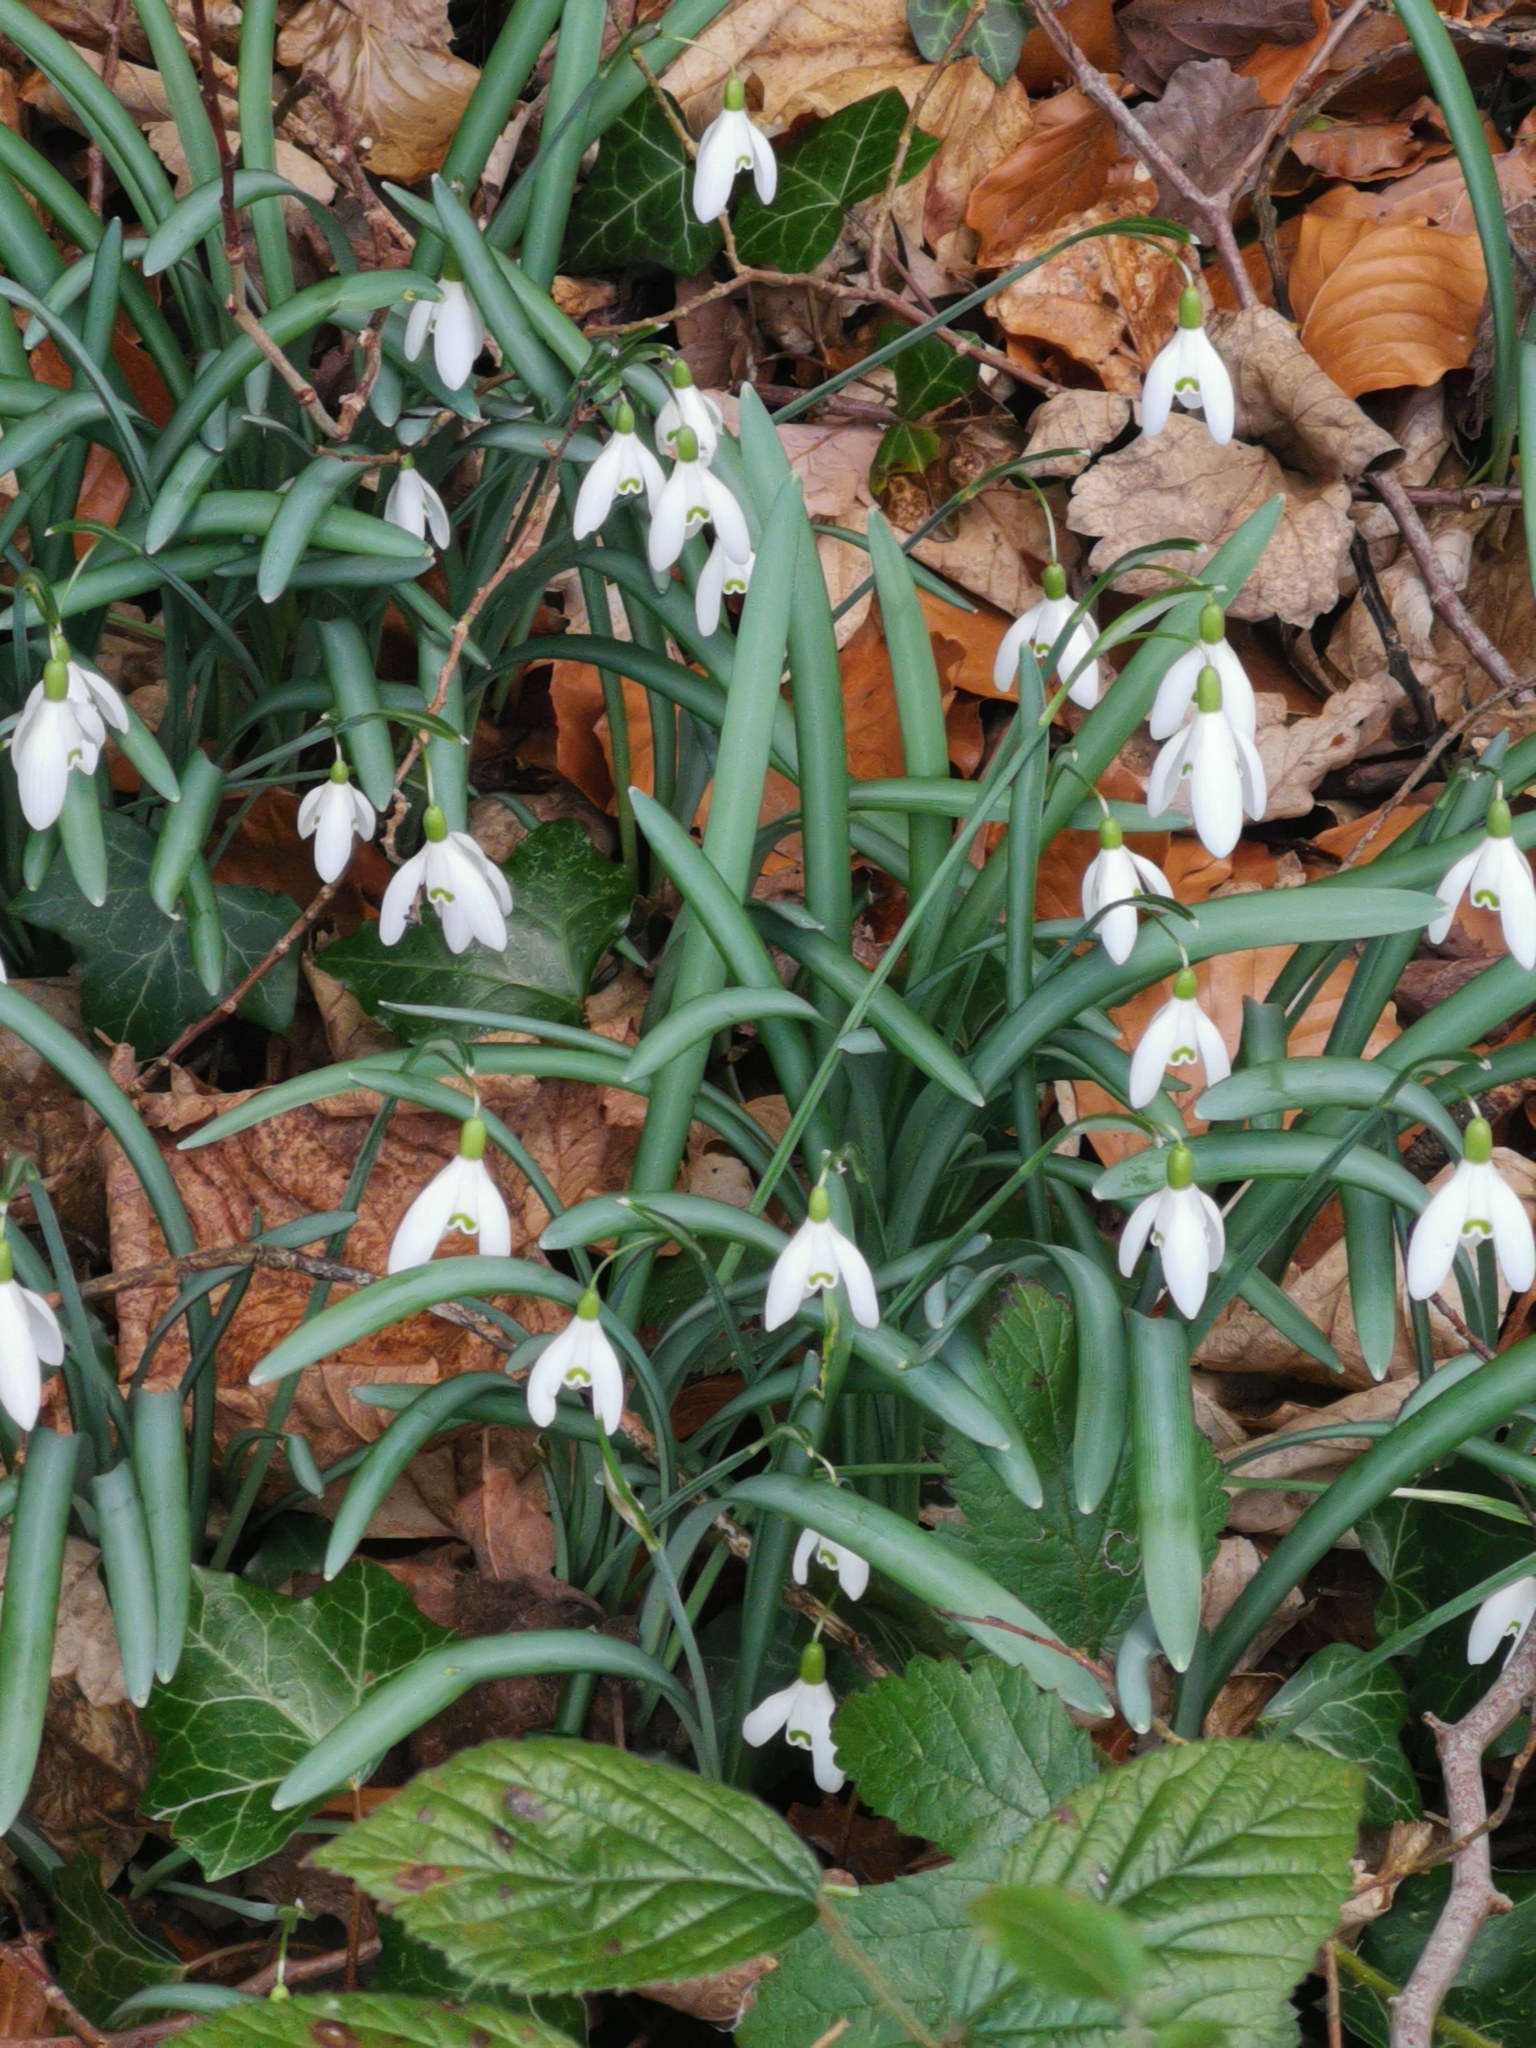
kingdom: Plantae
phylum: Tracheophyta
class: Liliopsida
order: Asparagales
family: Amaryllidaceae
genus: Galanthus
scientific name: Galanthus nivalis
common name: Snowdrop
